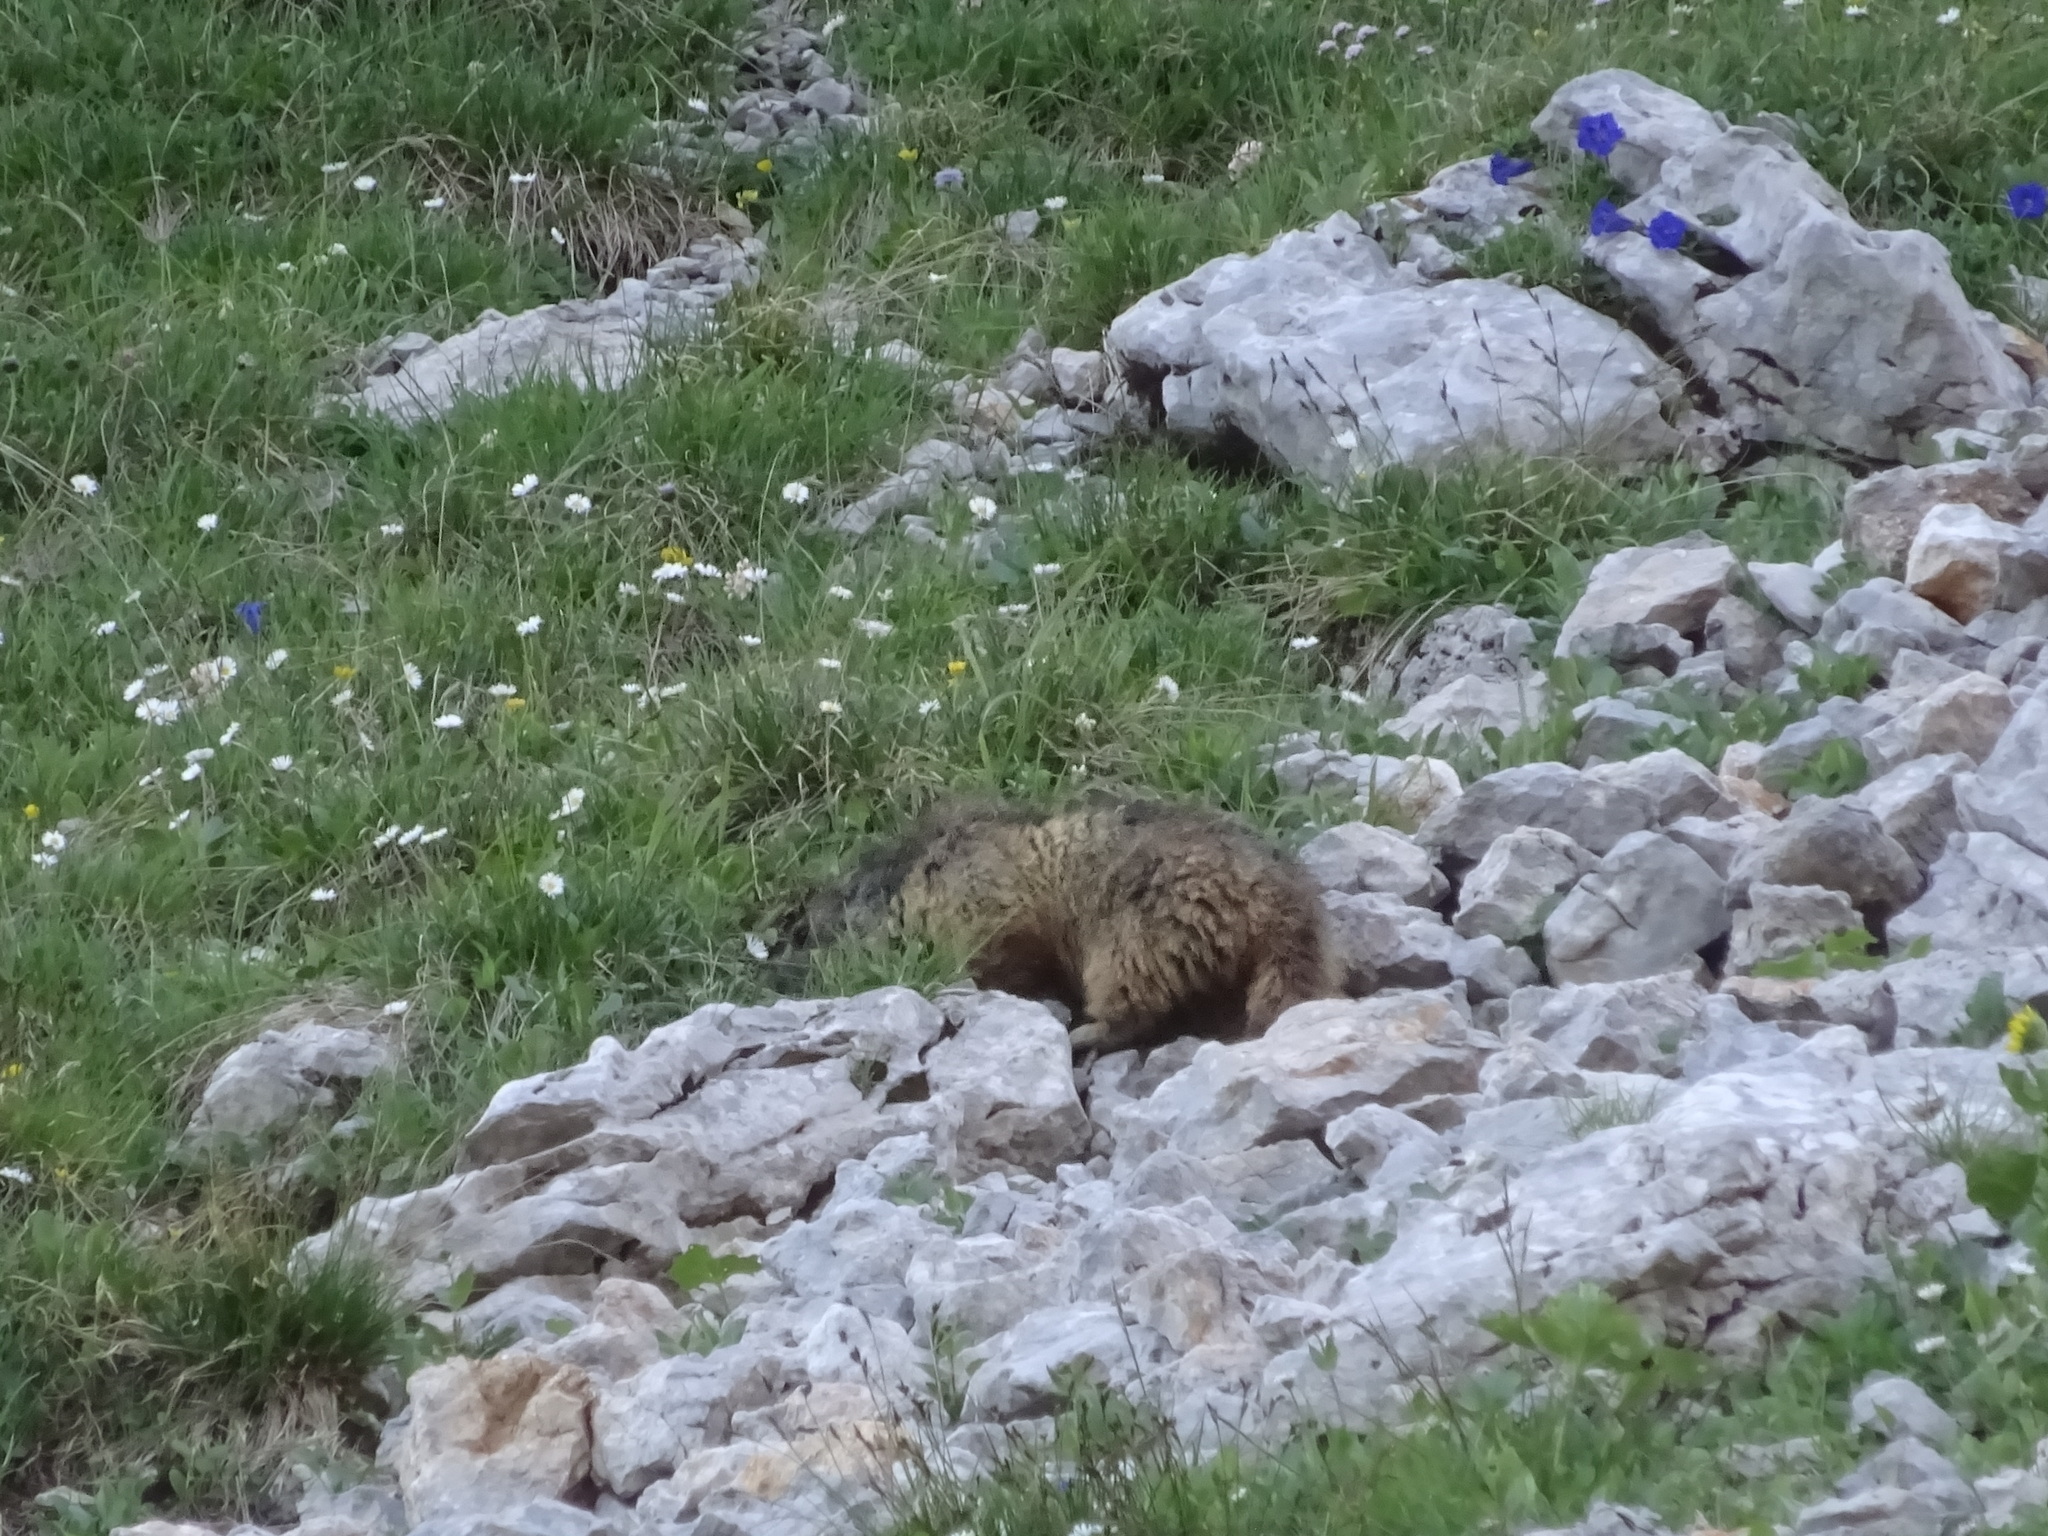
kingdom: Animalia
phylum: Chordata
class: Mammalia
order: Rodentia
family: Sciuridae
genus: Marmota
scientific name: Marmota marmota
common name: Alpine marmot
